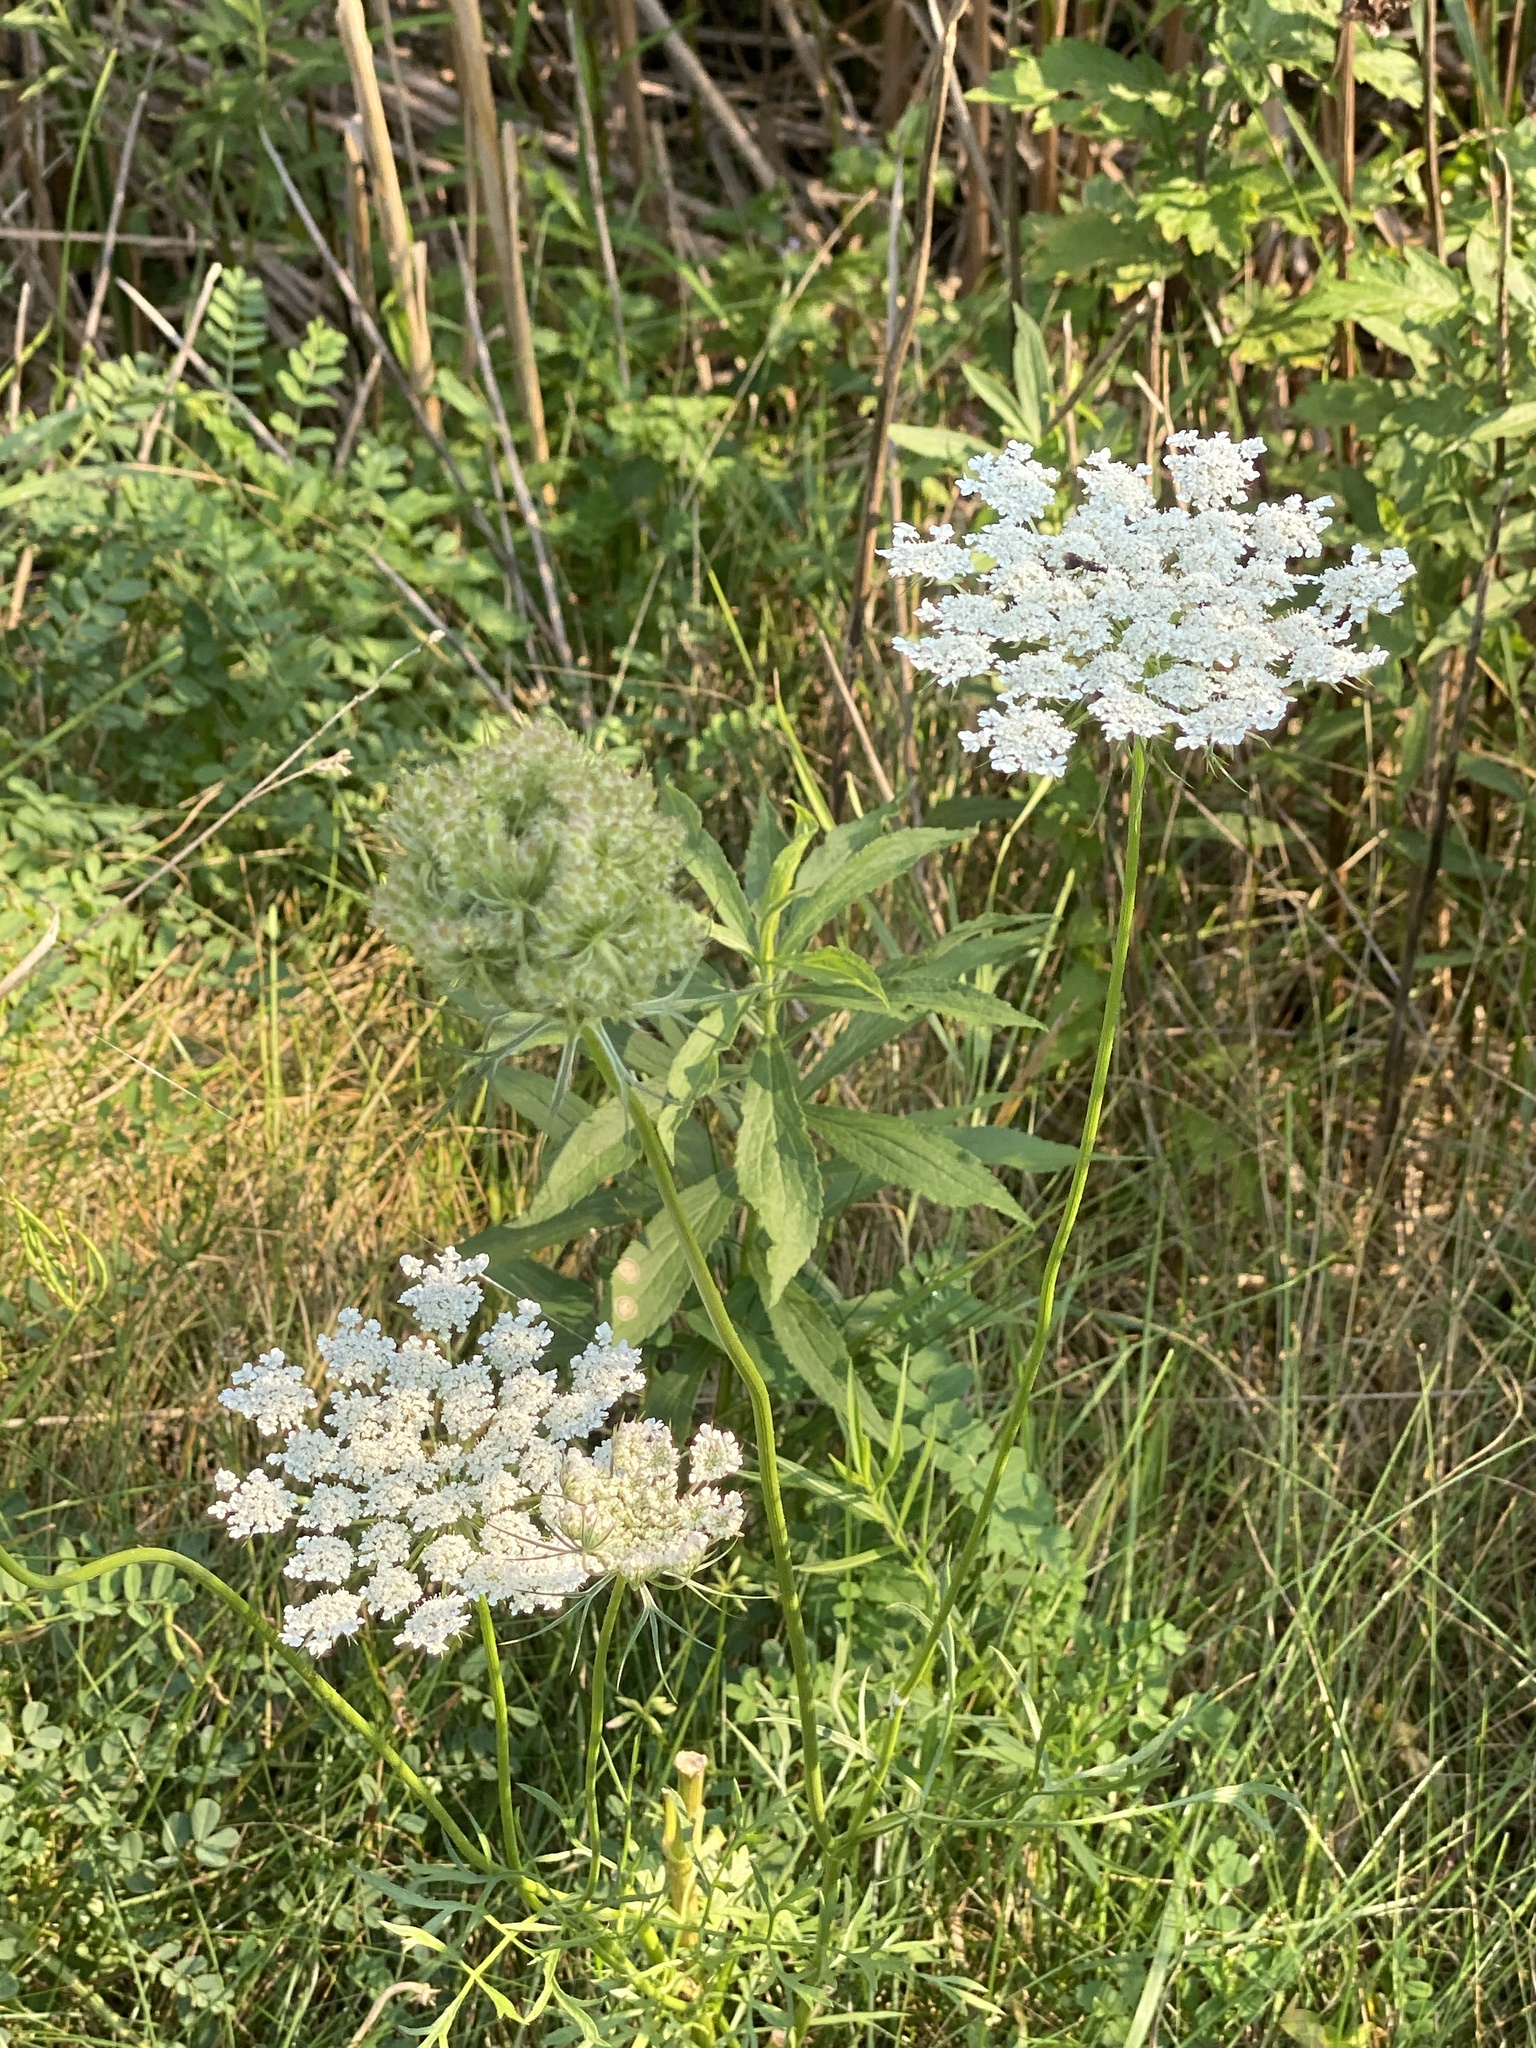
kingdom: Plantae
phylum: Tracheophyta
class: Magnoliopsida
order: Apiales
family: Apiaceae
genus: Daucus
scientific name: Daucus carota
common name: Wild carrot
